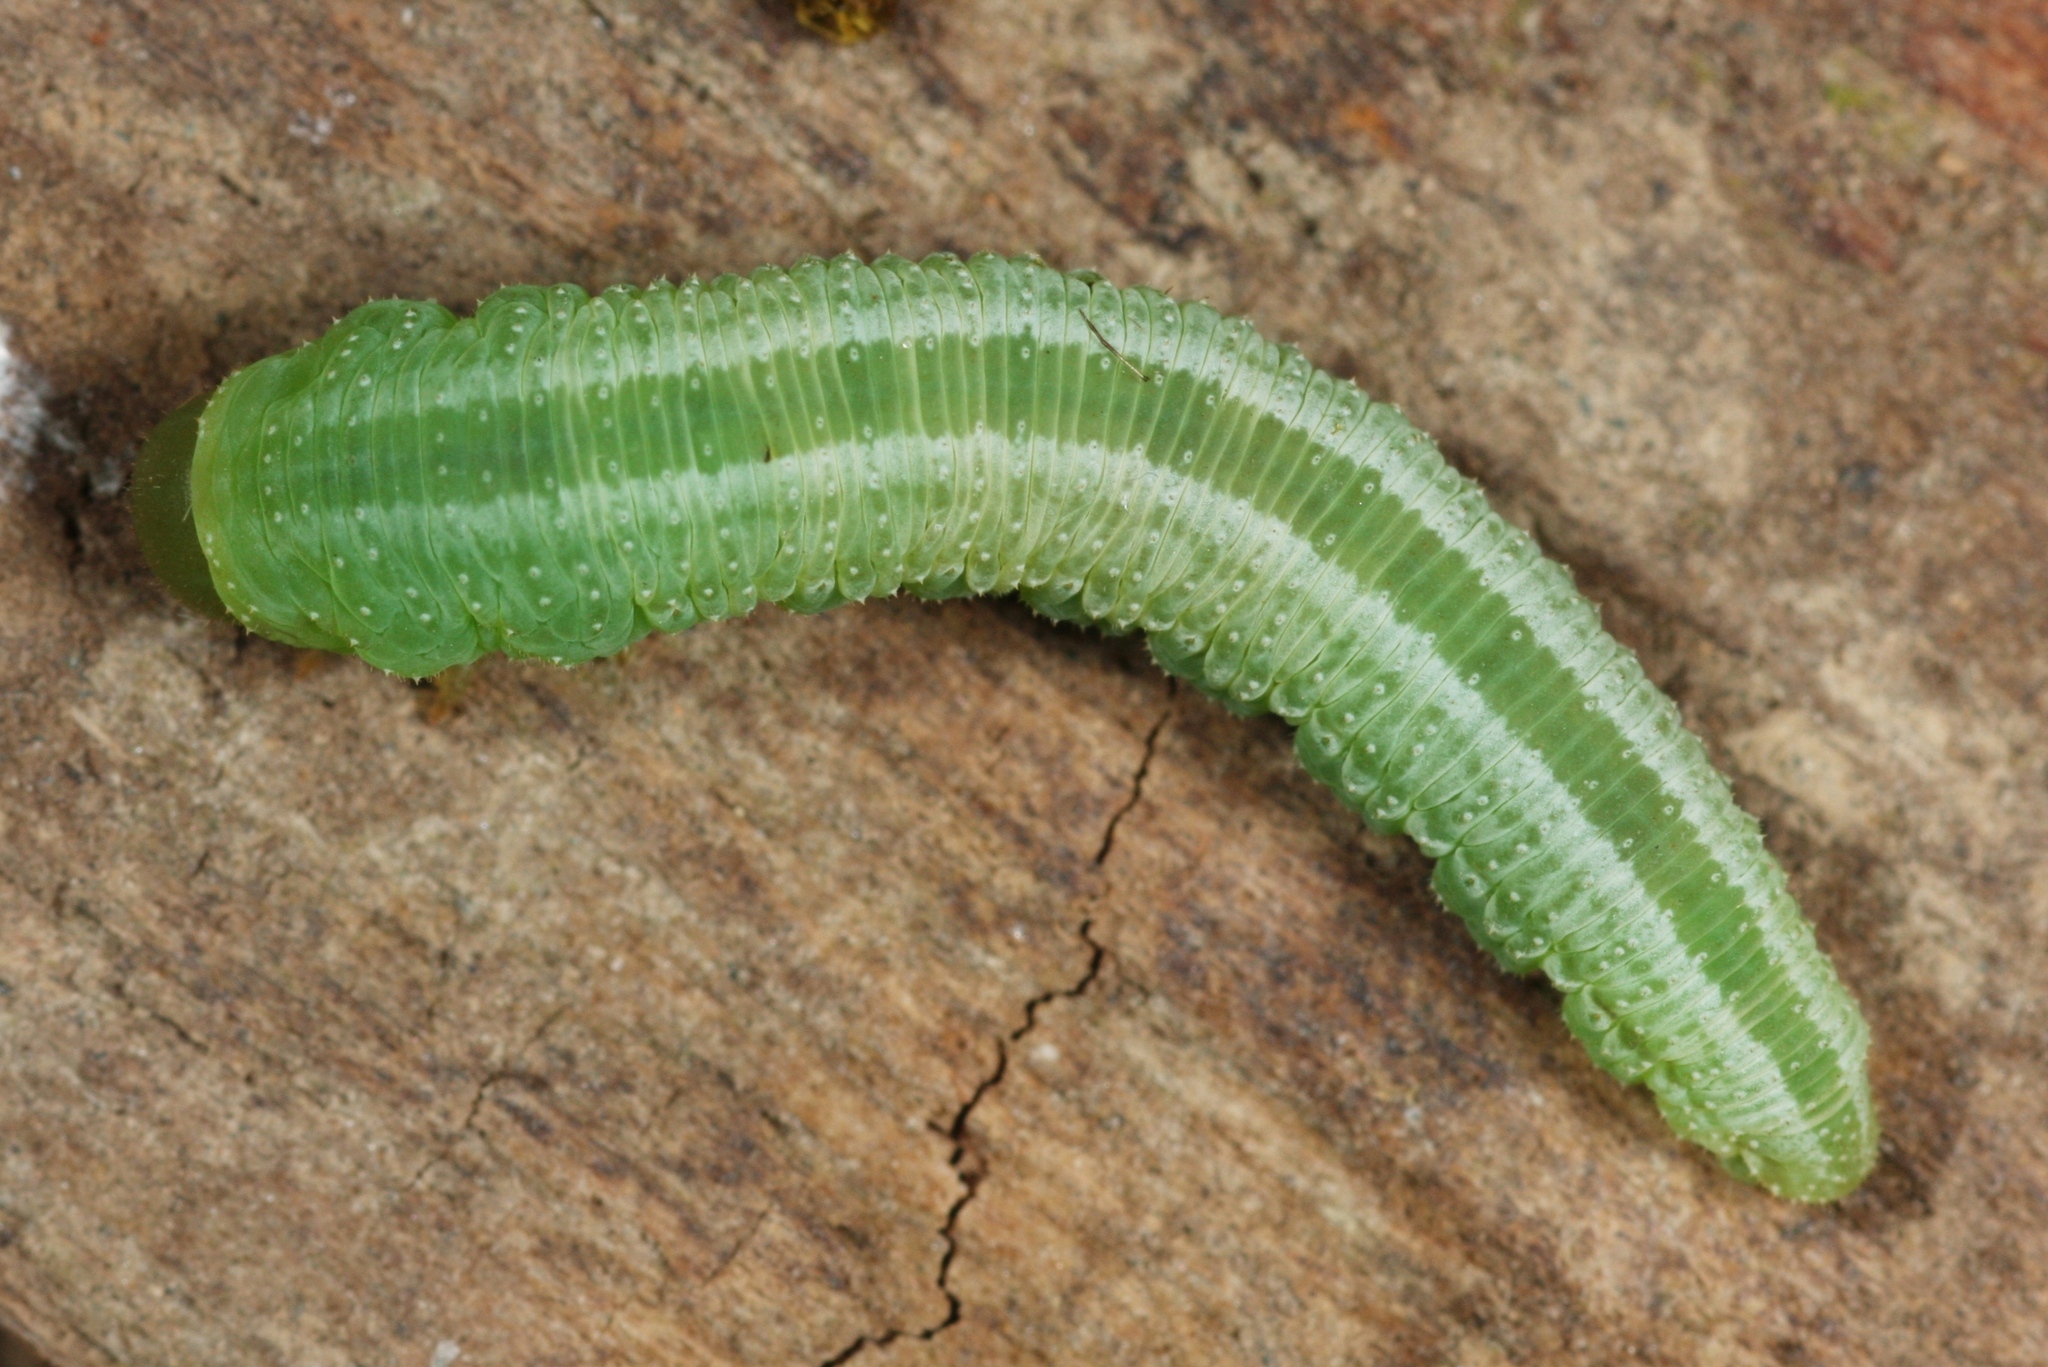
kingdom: Animalia
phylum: Arthropoda
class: Insecta
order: Hymenoptera
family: Tenthredinidae
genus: Tenthredopsis
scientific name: Tenthredopsis friesei
